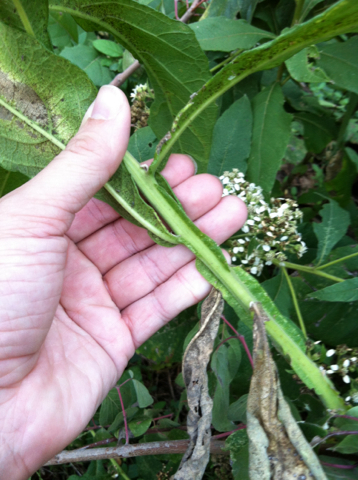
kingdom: Plantae
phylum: Tracheophyta
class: Magnoliopsida
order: Asterales
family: Asteraceae
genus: Verbesina
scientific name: Verbesina virginica
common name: Frostweed
